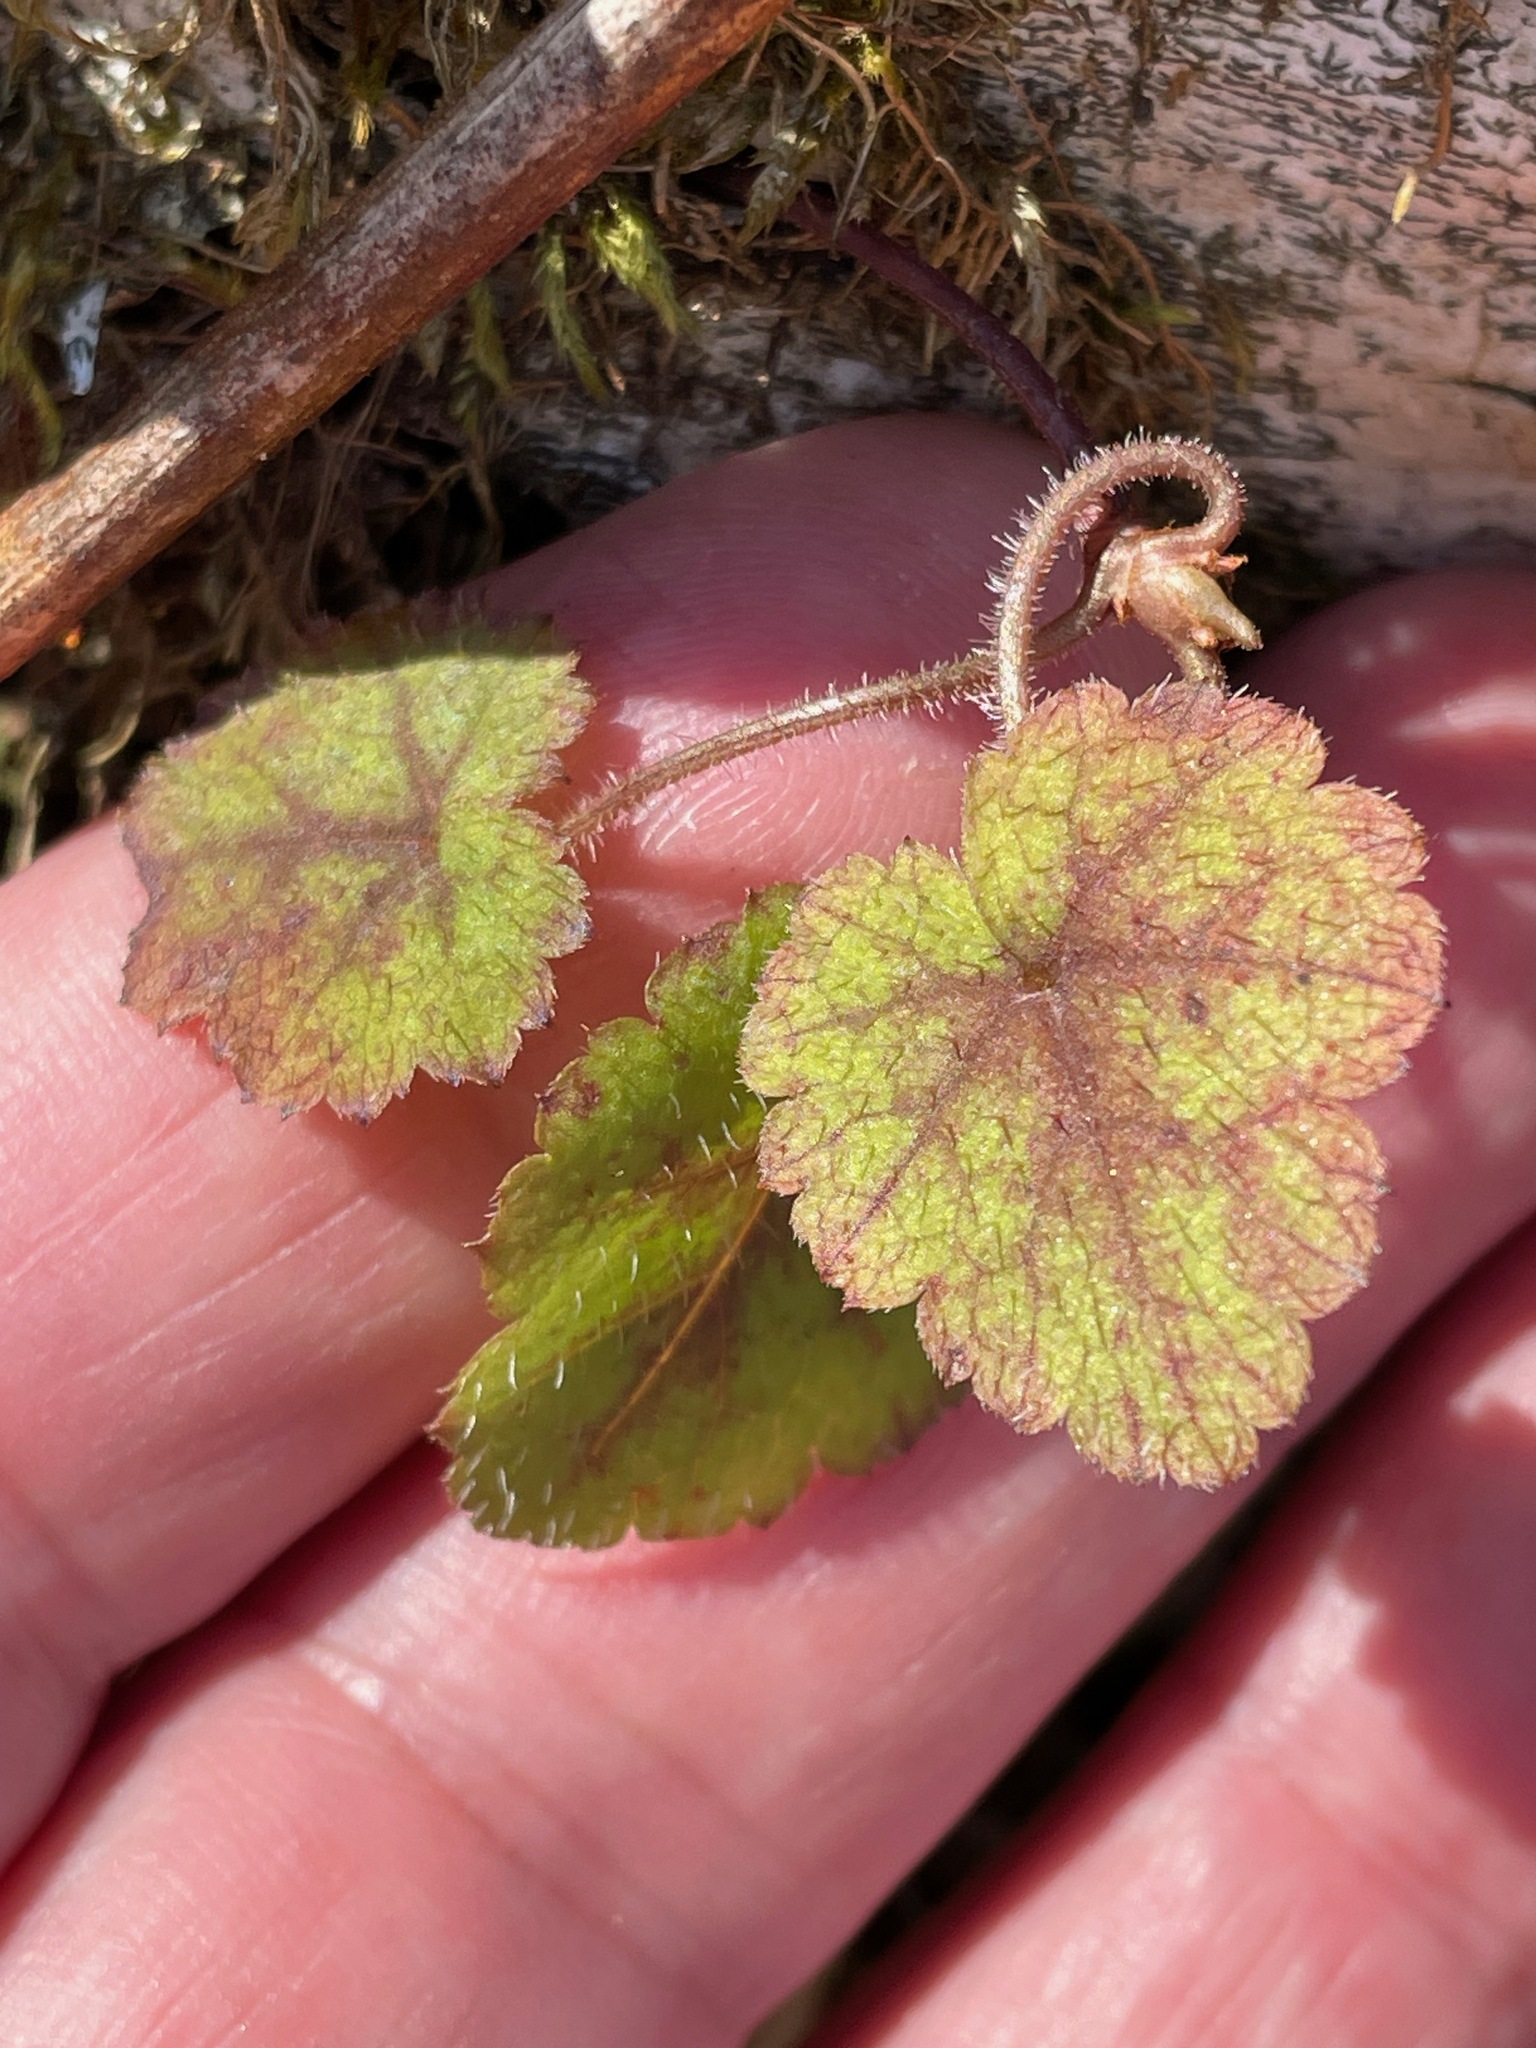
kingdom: Plantae
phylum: Tracheophyta
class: Magnoliopsida
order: Saxifragales
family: Saxifragaceae
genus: Tiarella
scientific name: Tiarella stolonifera
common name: Stoloniferous foamflower
